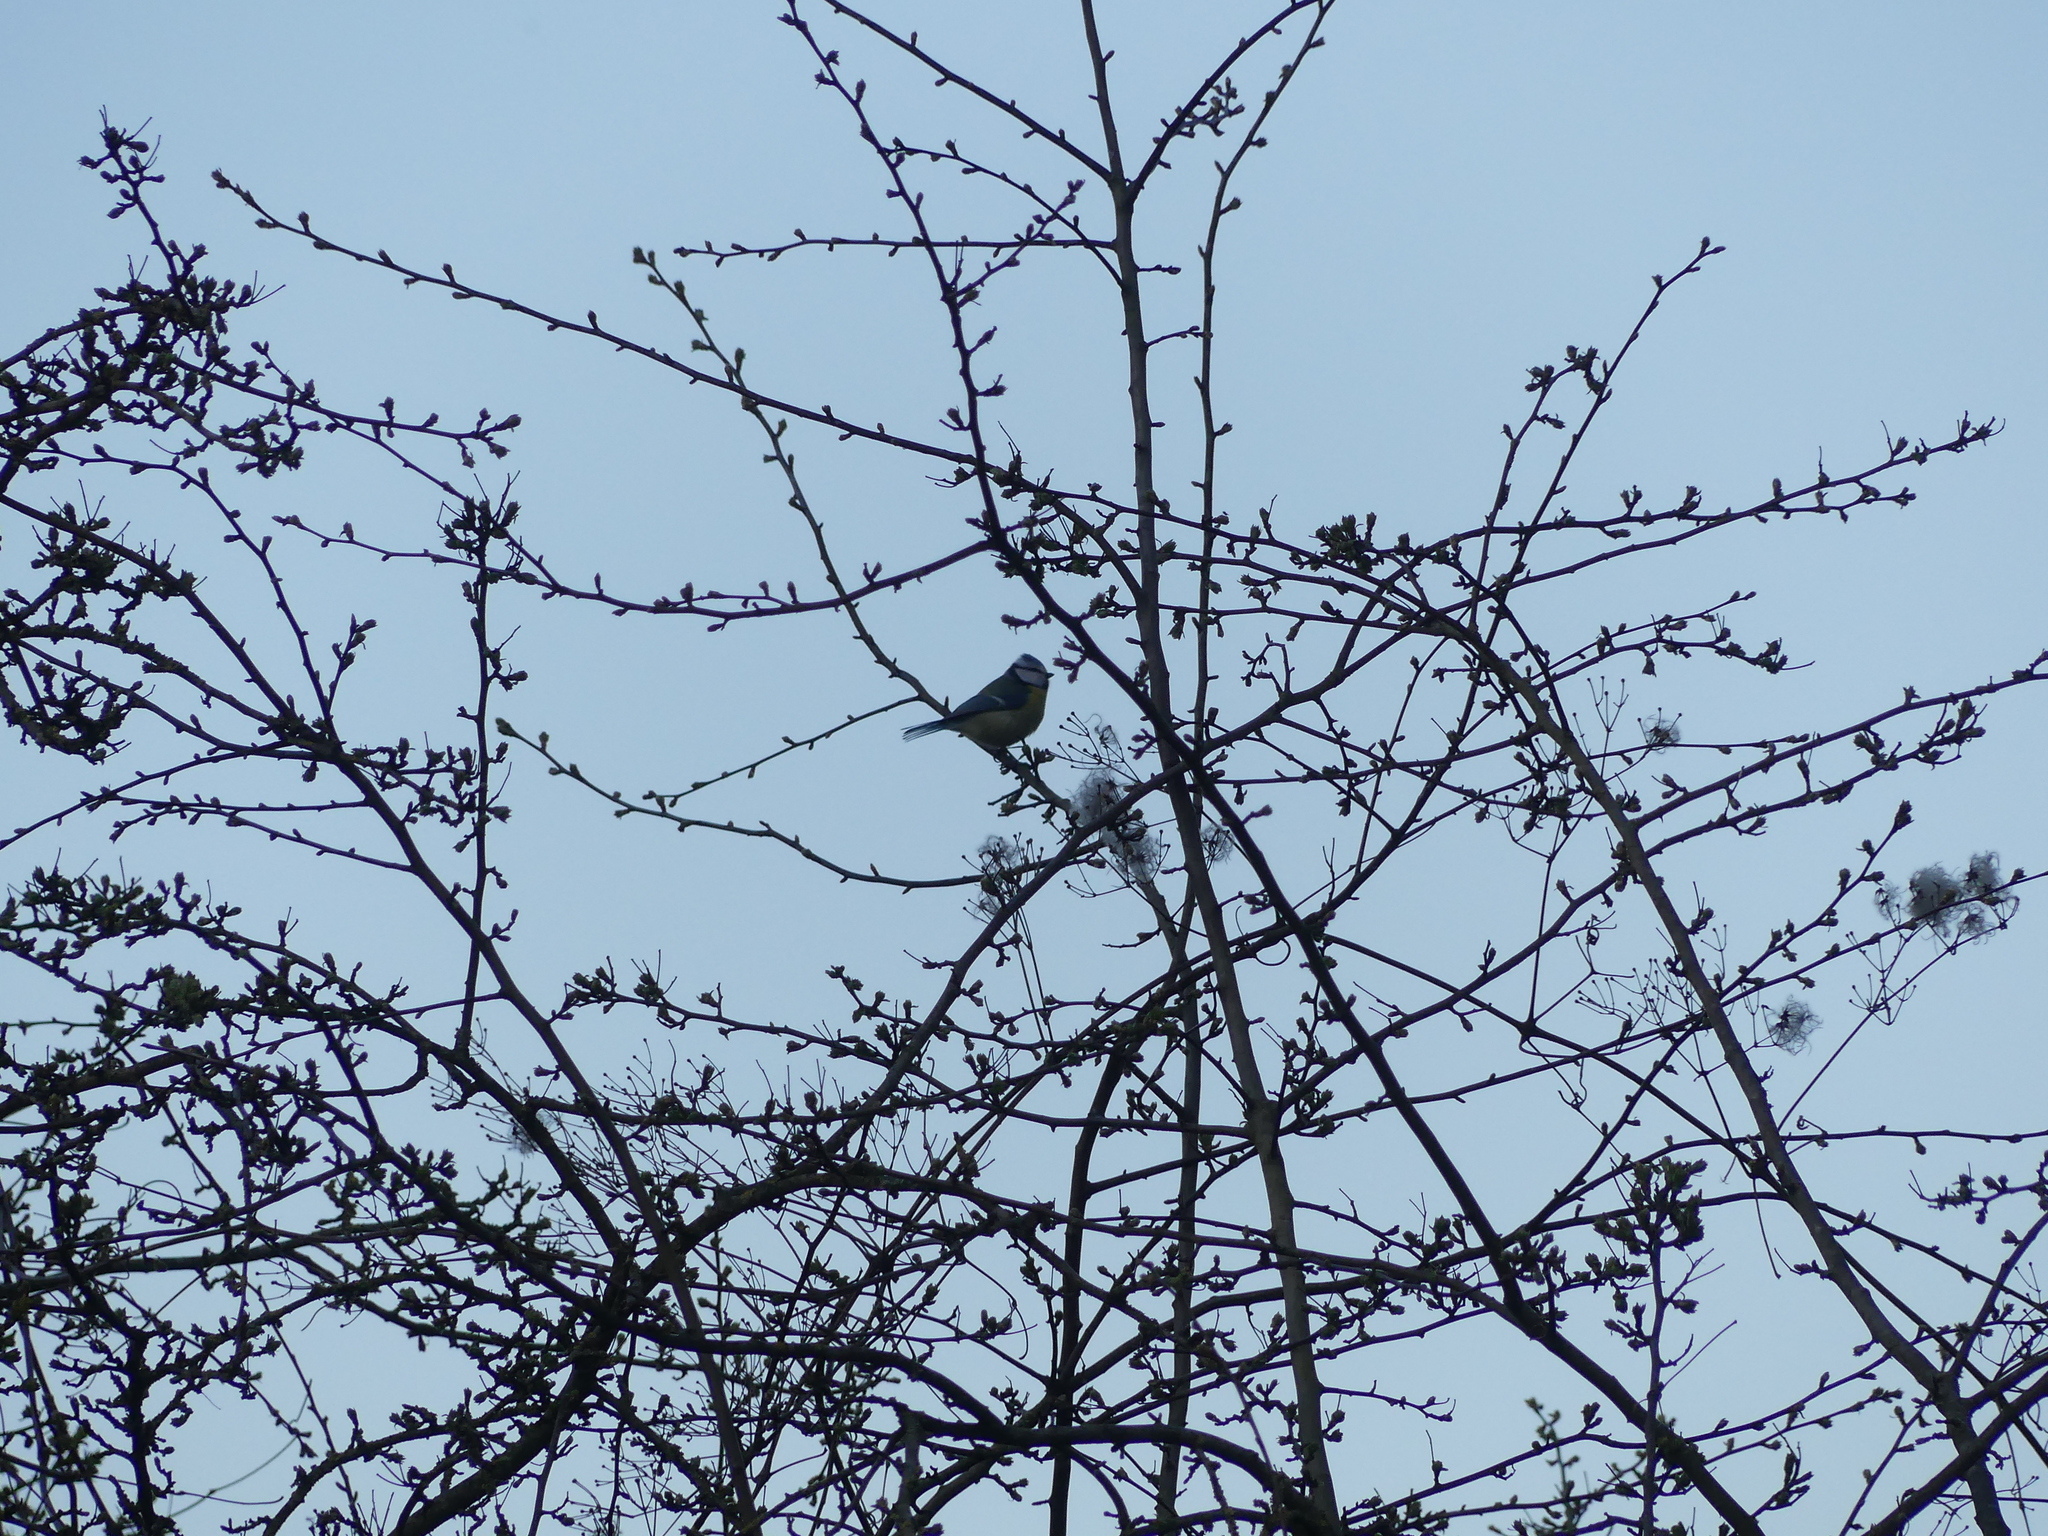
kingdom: Animalia
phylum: Chordata
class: Aves
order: Passeriformes
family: Paridae
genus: Cyanistes
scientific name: Cyanistes caeruleus
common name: Eurasian blue tit
